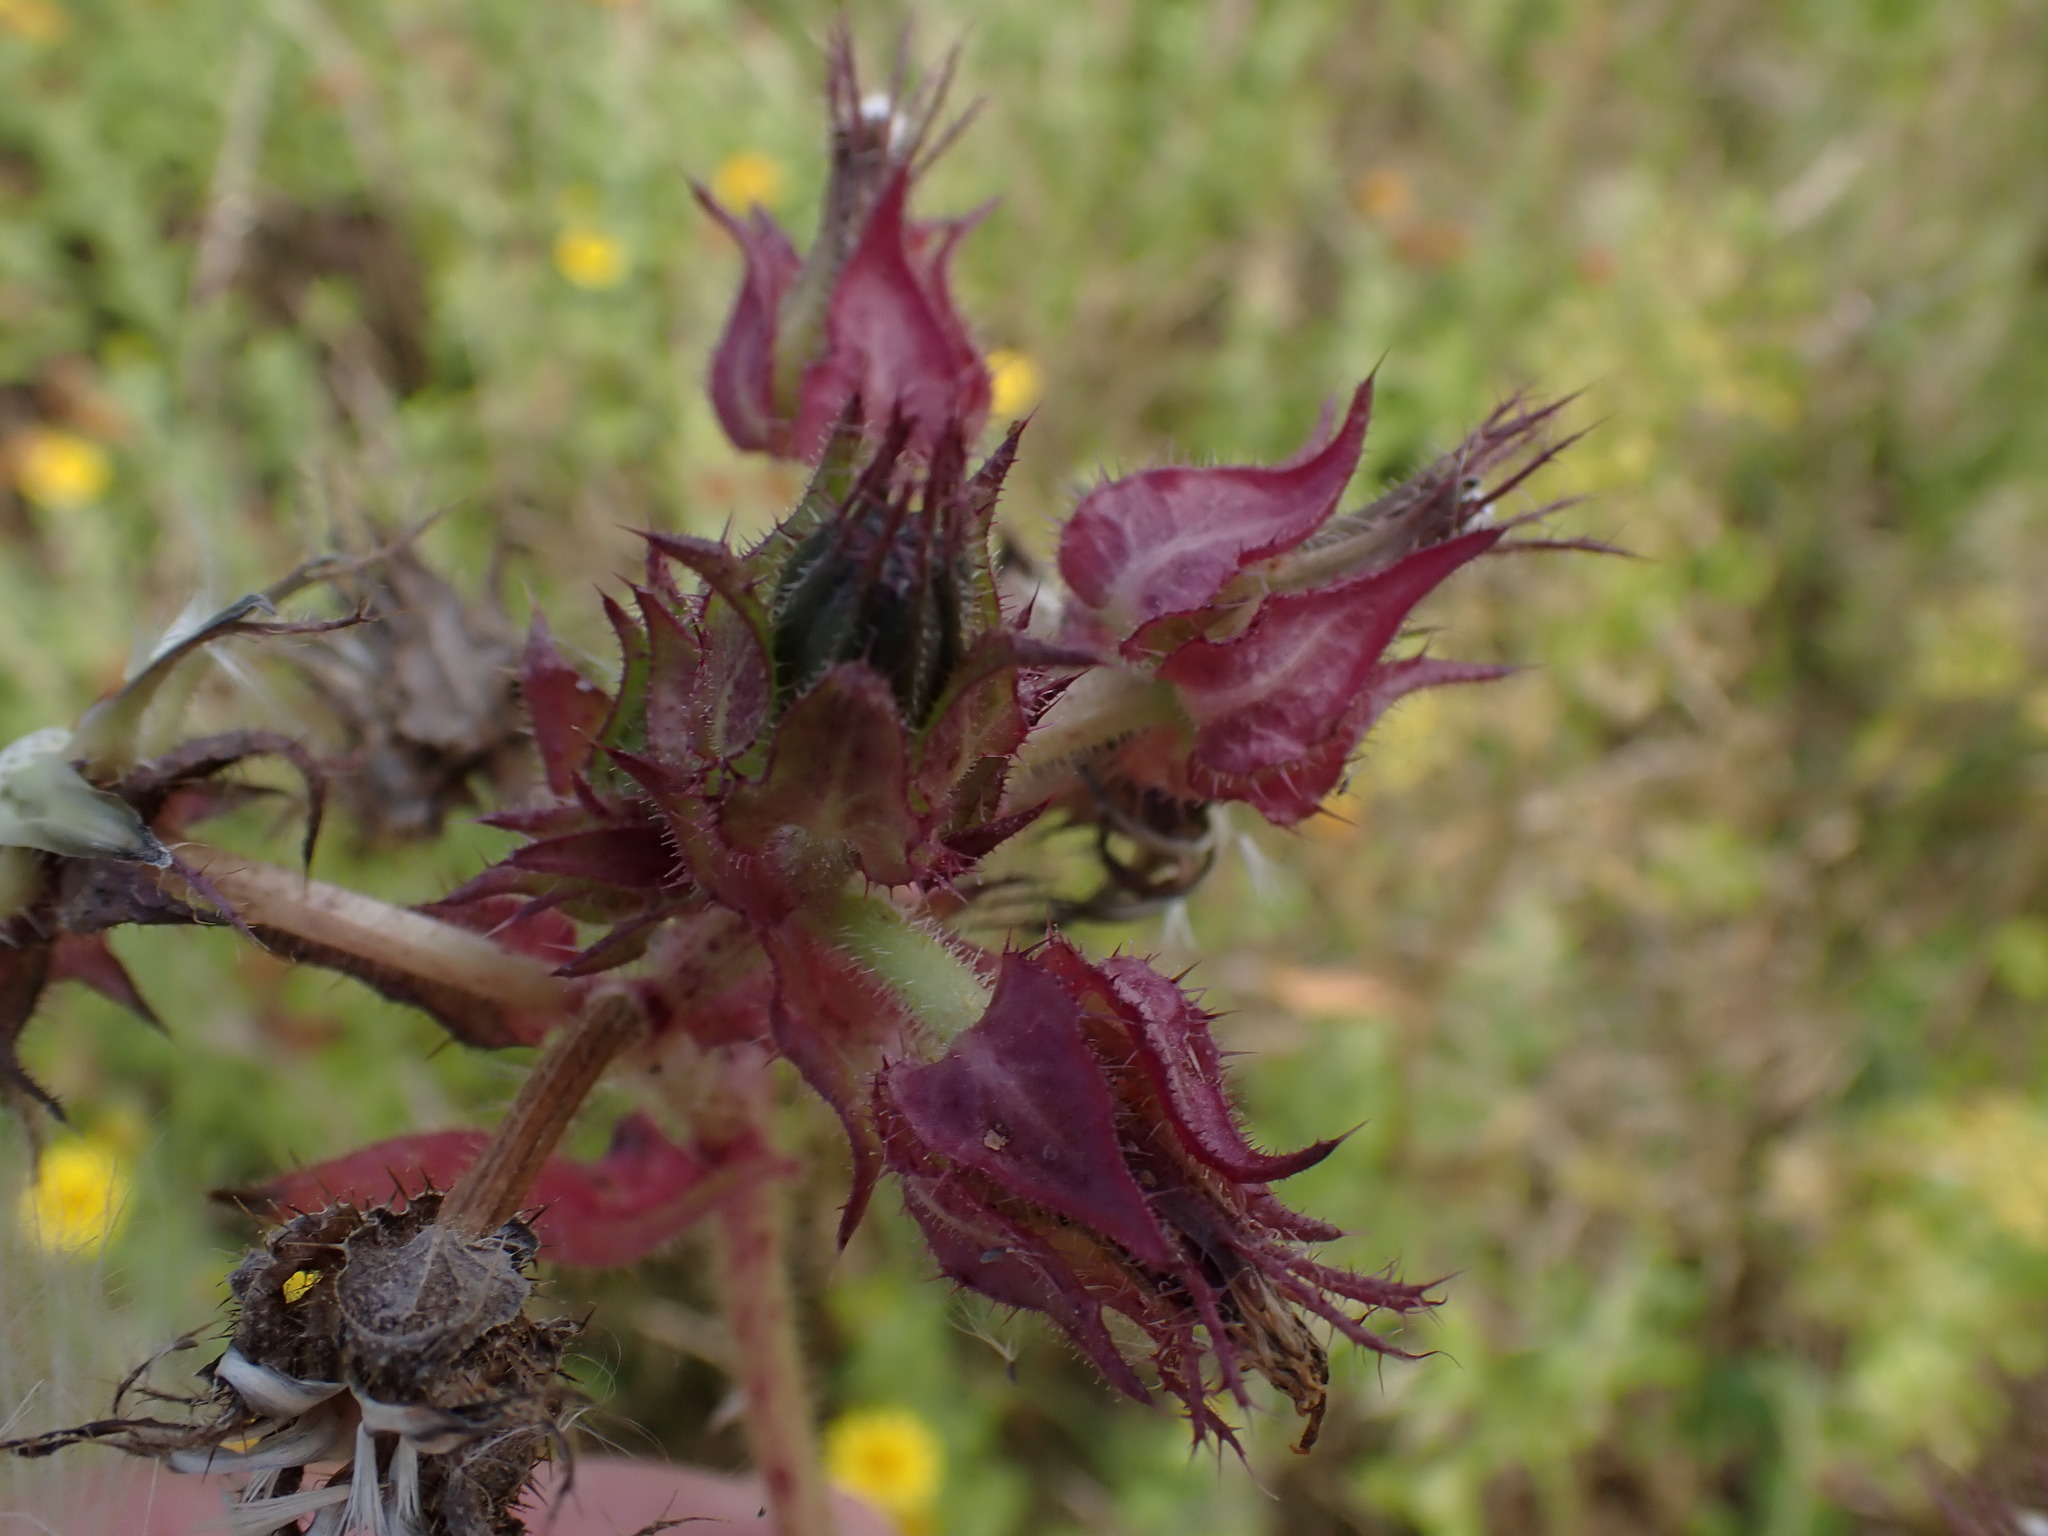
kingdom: Plantae
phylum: Tracheophyta
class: Magnoliopsida
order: Asterales
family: Asteraceae
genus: Helminthotheca
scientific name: Helminthotheca echioides
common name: Ox-tongue
